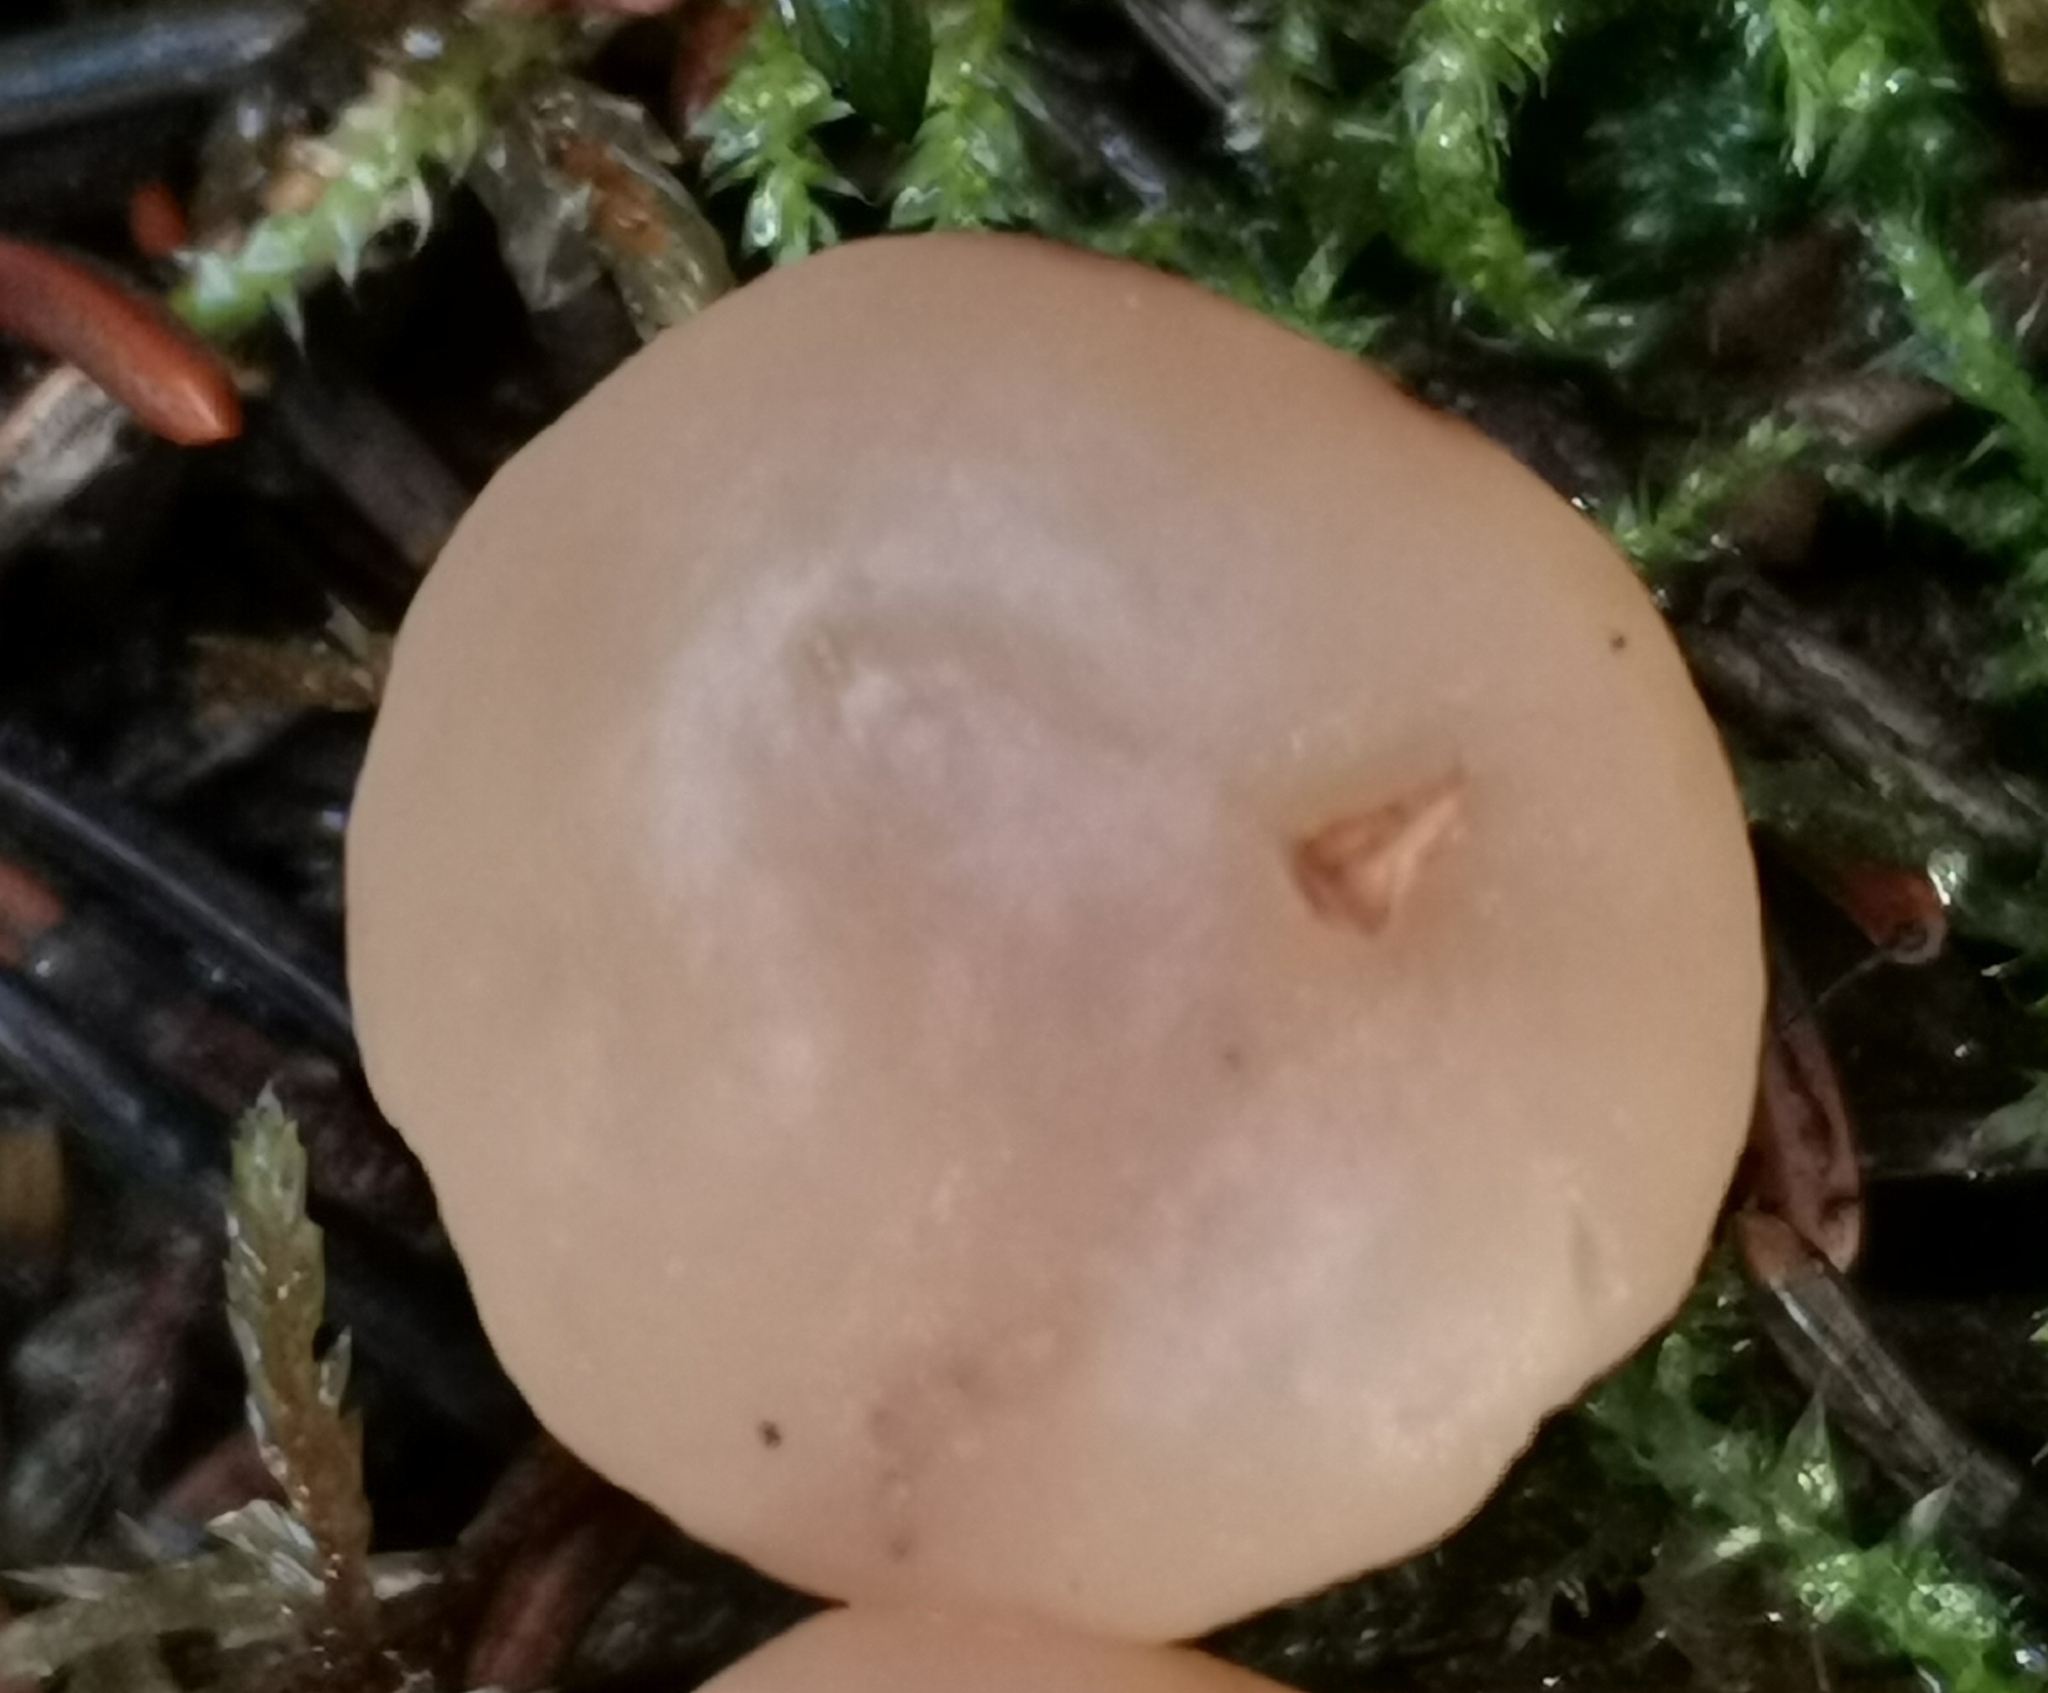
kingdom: Fungi
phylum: Ascomycota
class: Leotiomycetes
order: Rhytismatales
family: Cudoniaceae
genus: Cudonia
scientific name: Cudonia confusa
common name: Cinnamon jellybaby
